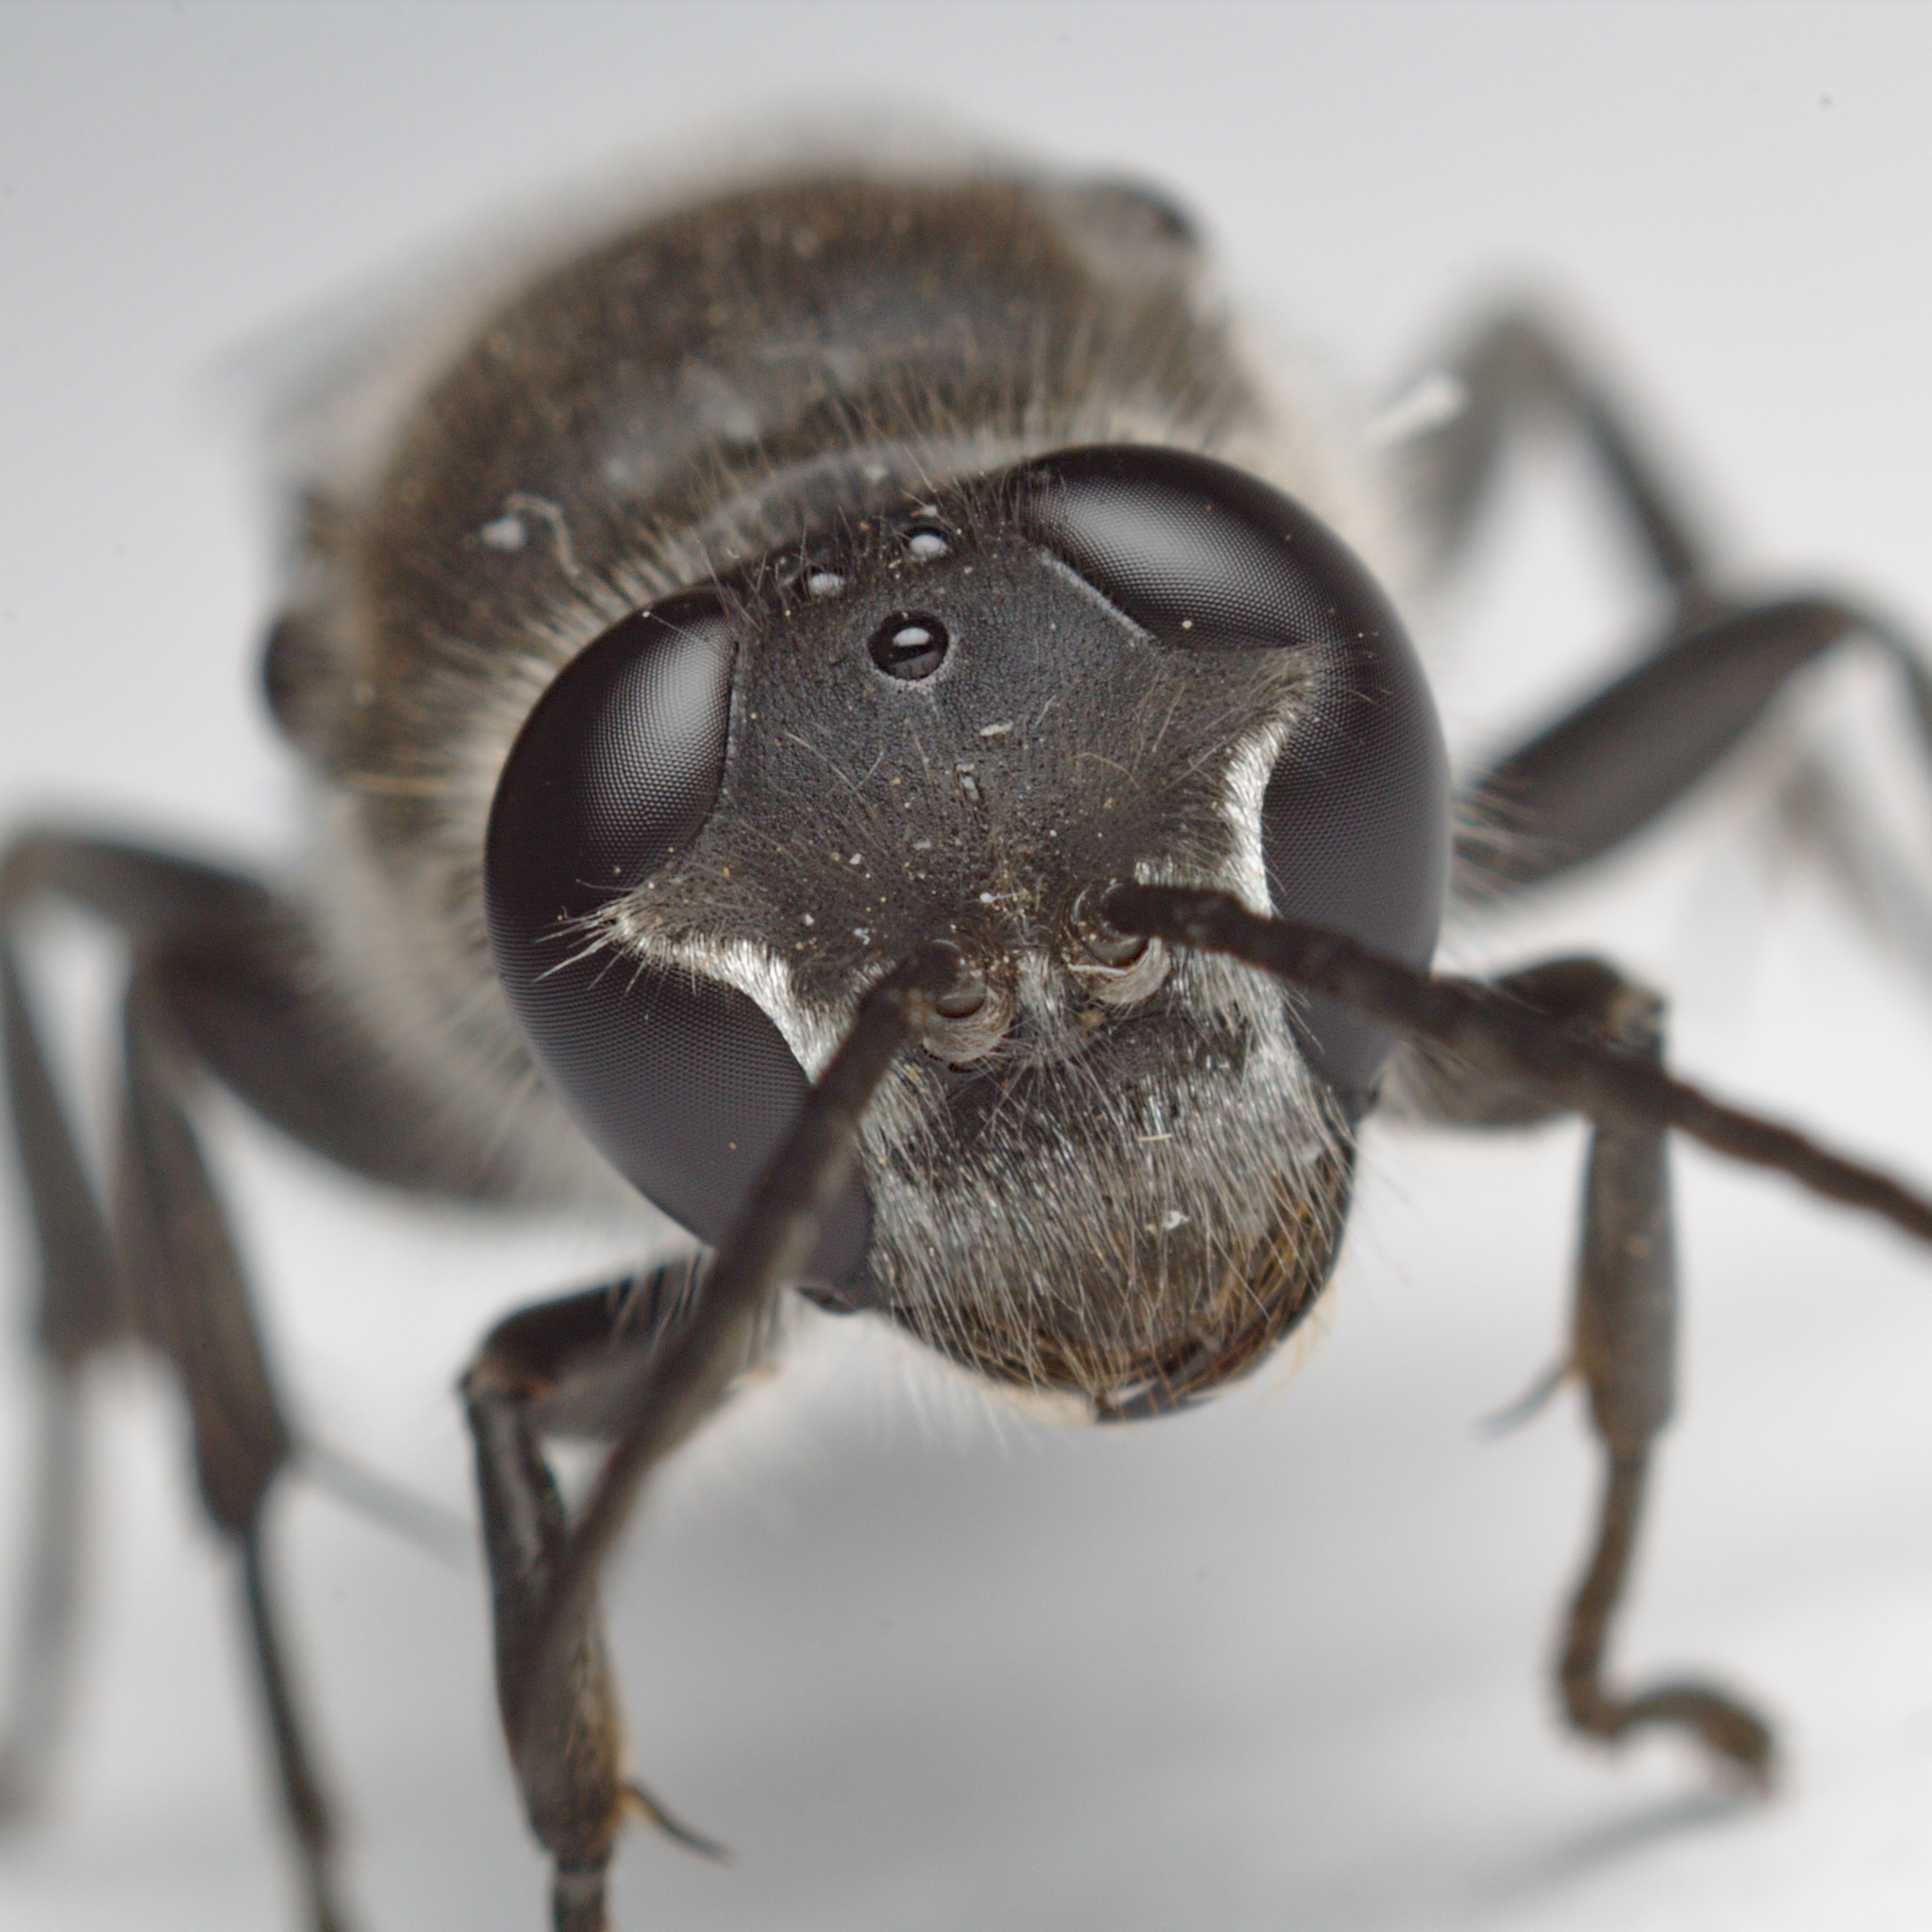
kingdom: Animalia
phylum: Arthropoda
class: Insecta
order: Hymenoptera
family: Crabronidae
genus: Pison
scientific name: Pison spinolae
